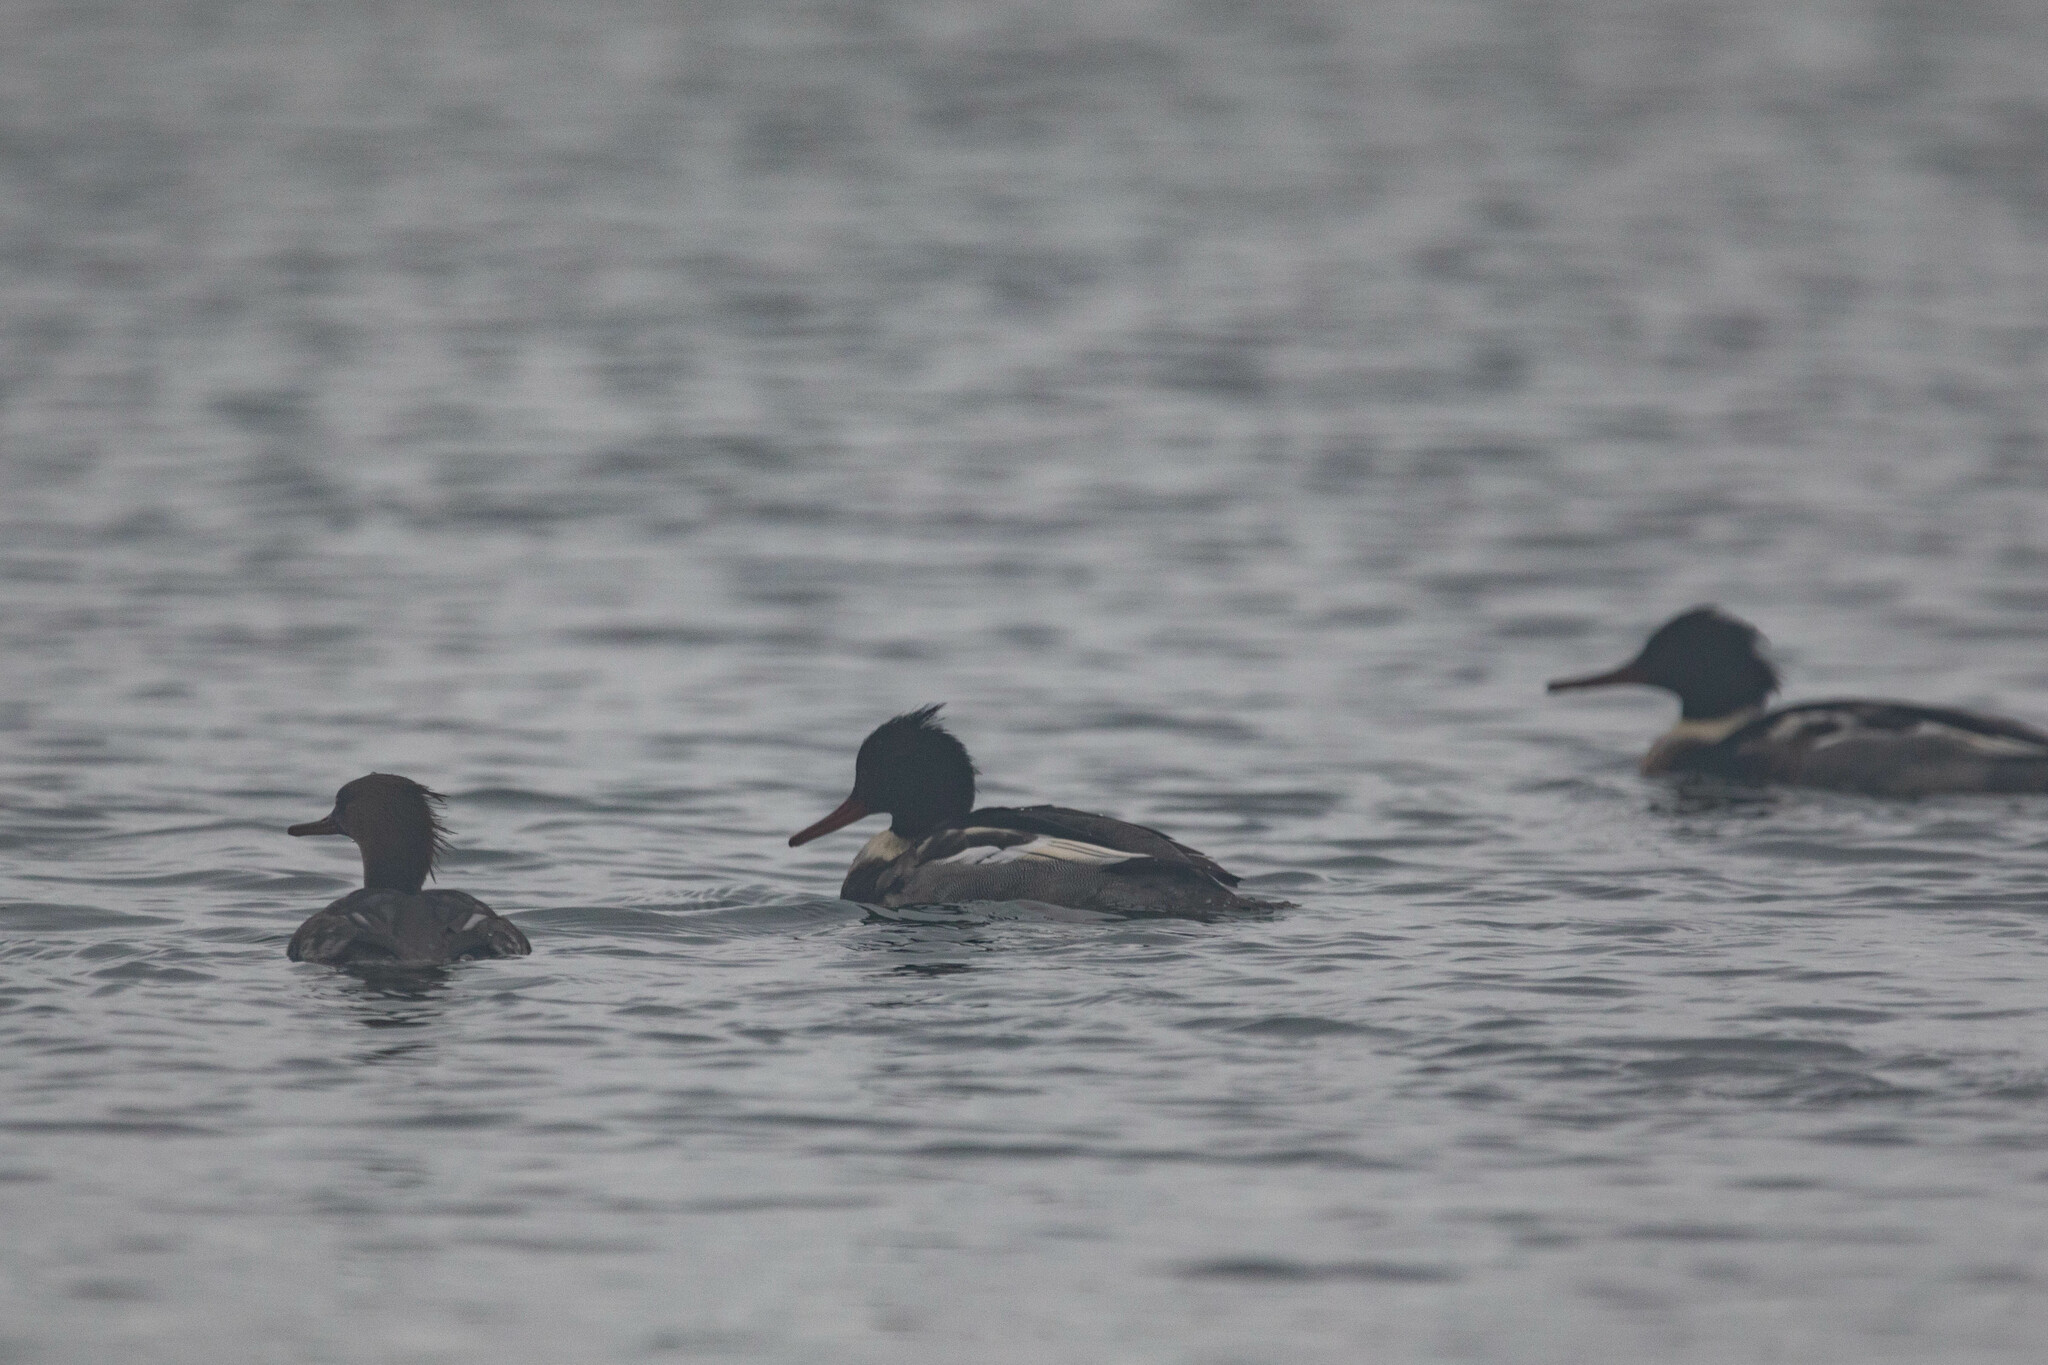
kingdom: Animalia
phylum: Chordata
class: Aves
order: Anseriformes
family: Anatidae
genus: Mergus
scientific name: Mergus serrator
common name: Red-breasted merganser
